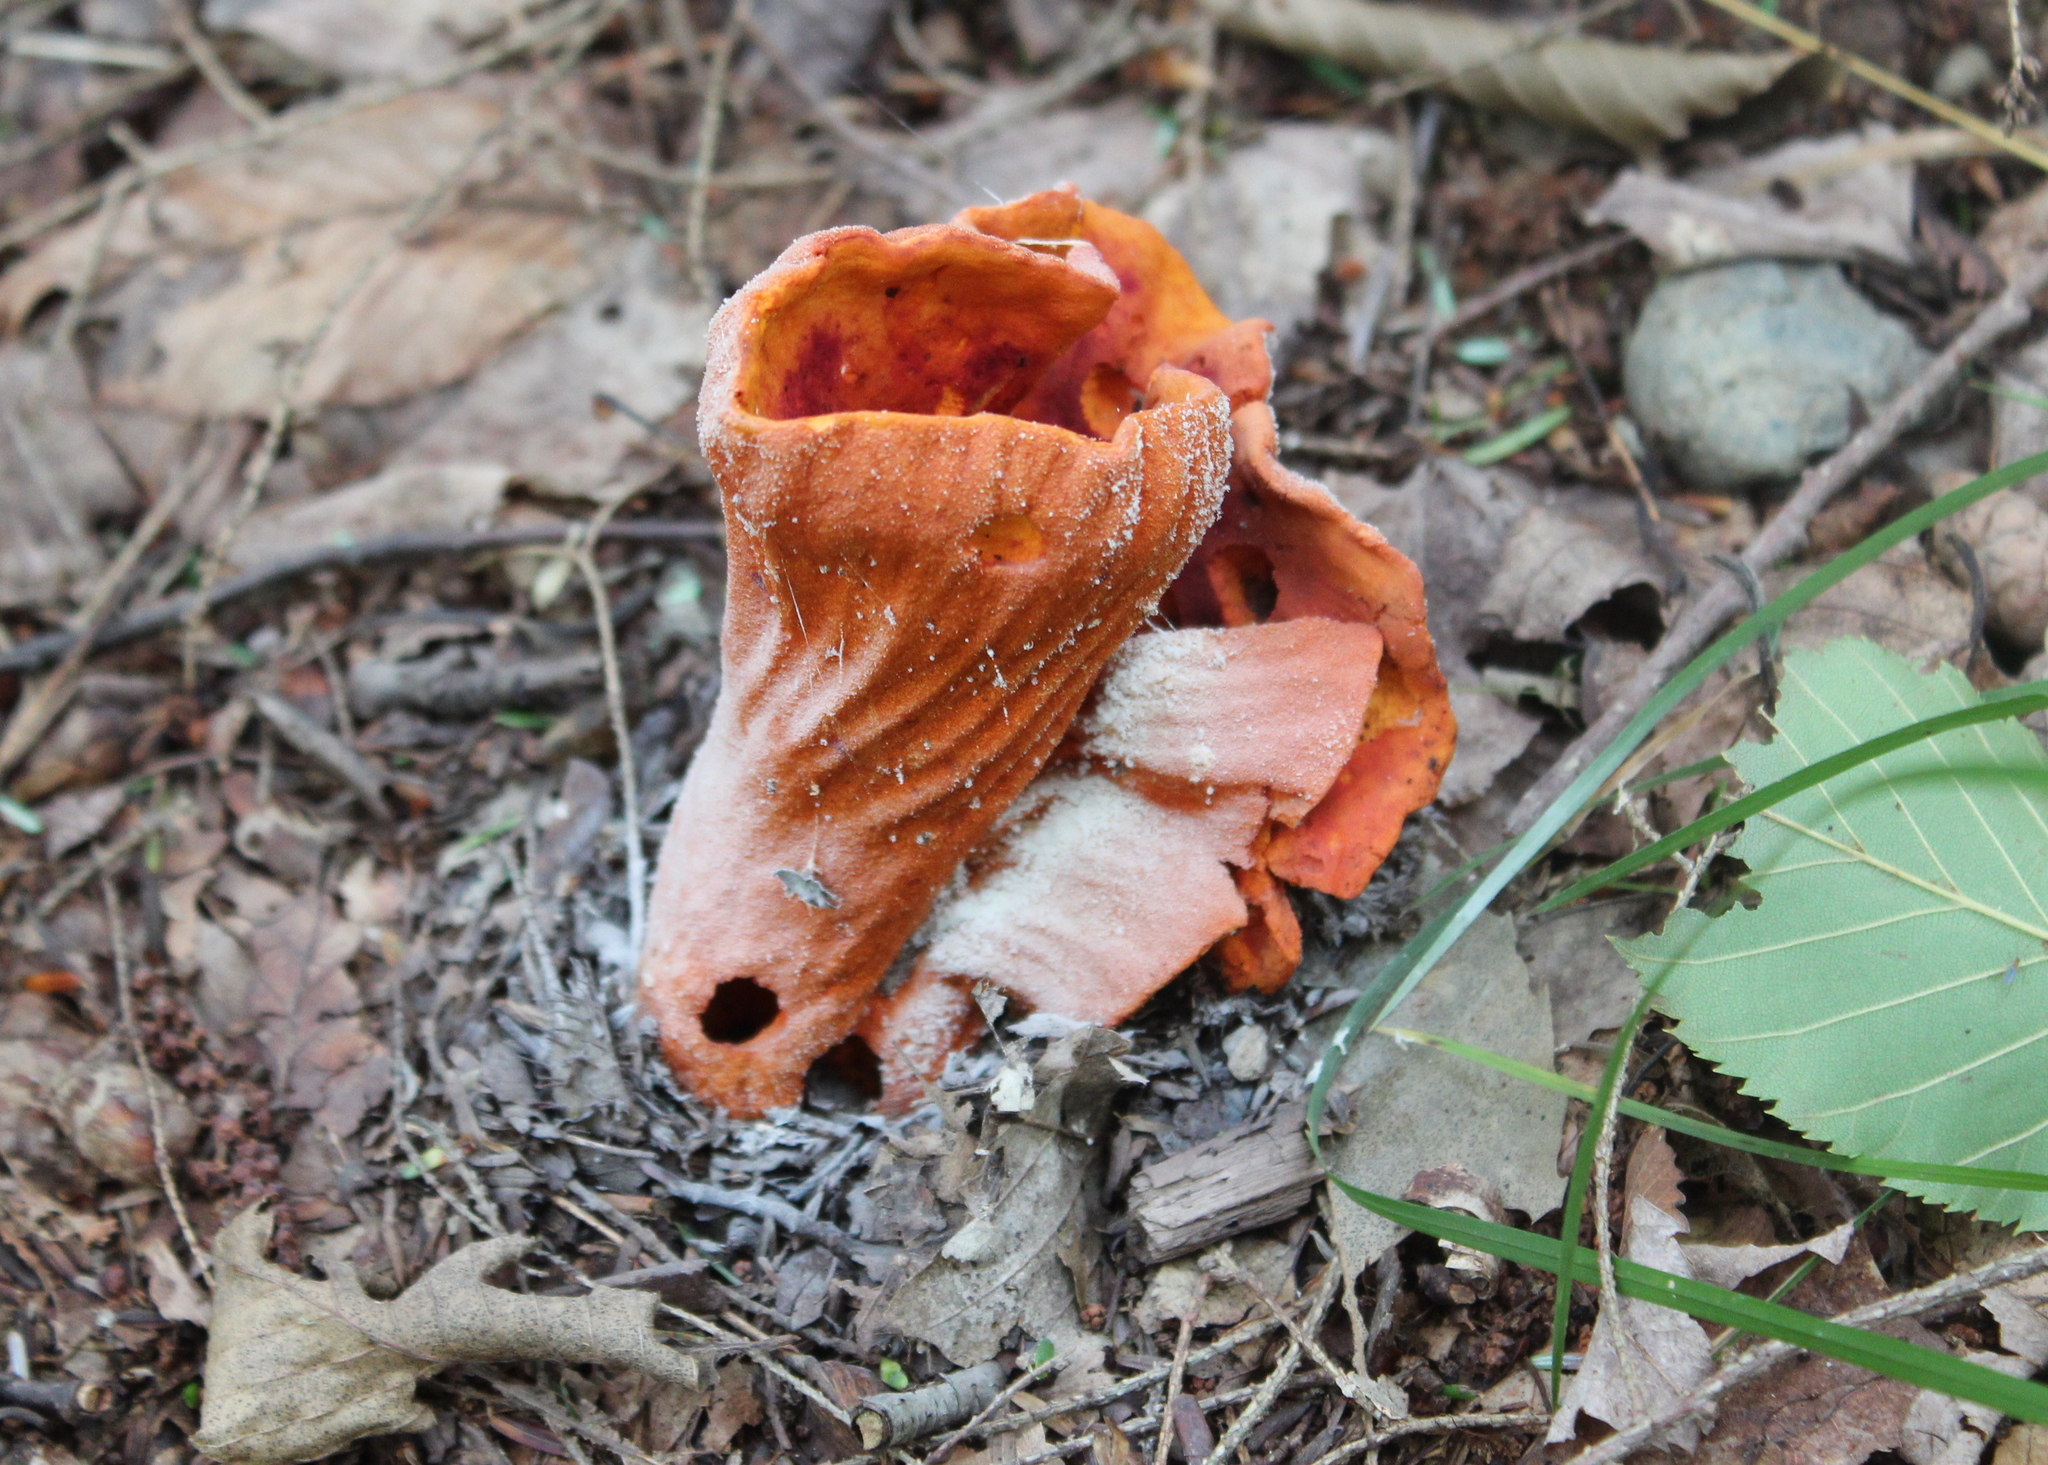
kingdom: Fungi
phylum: Ascomycota
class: Sordariomycetes
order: Hypocreales
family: Hypocreaceae
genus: Hypomyces
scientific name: Hypomyces lactifluorum
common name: Lobster mushroom
